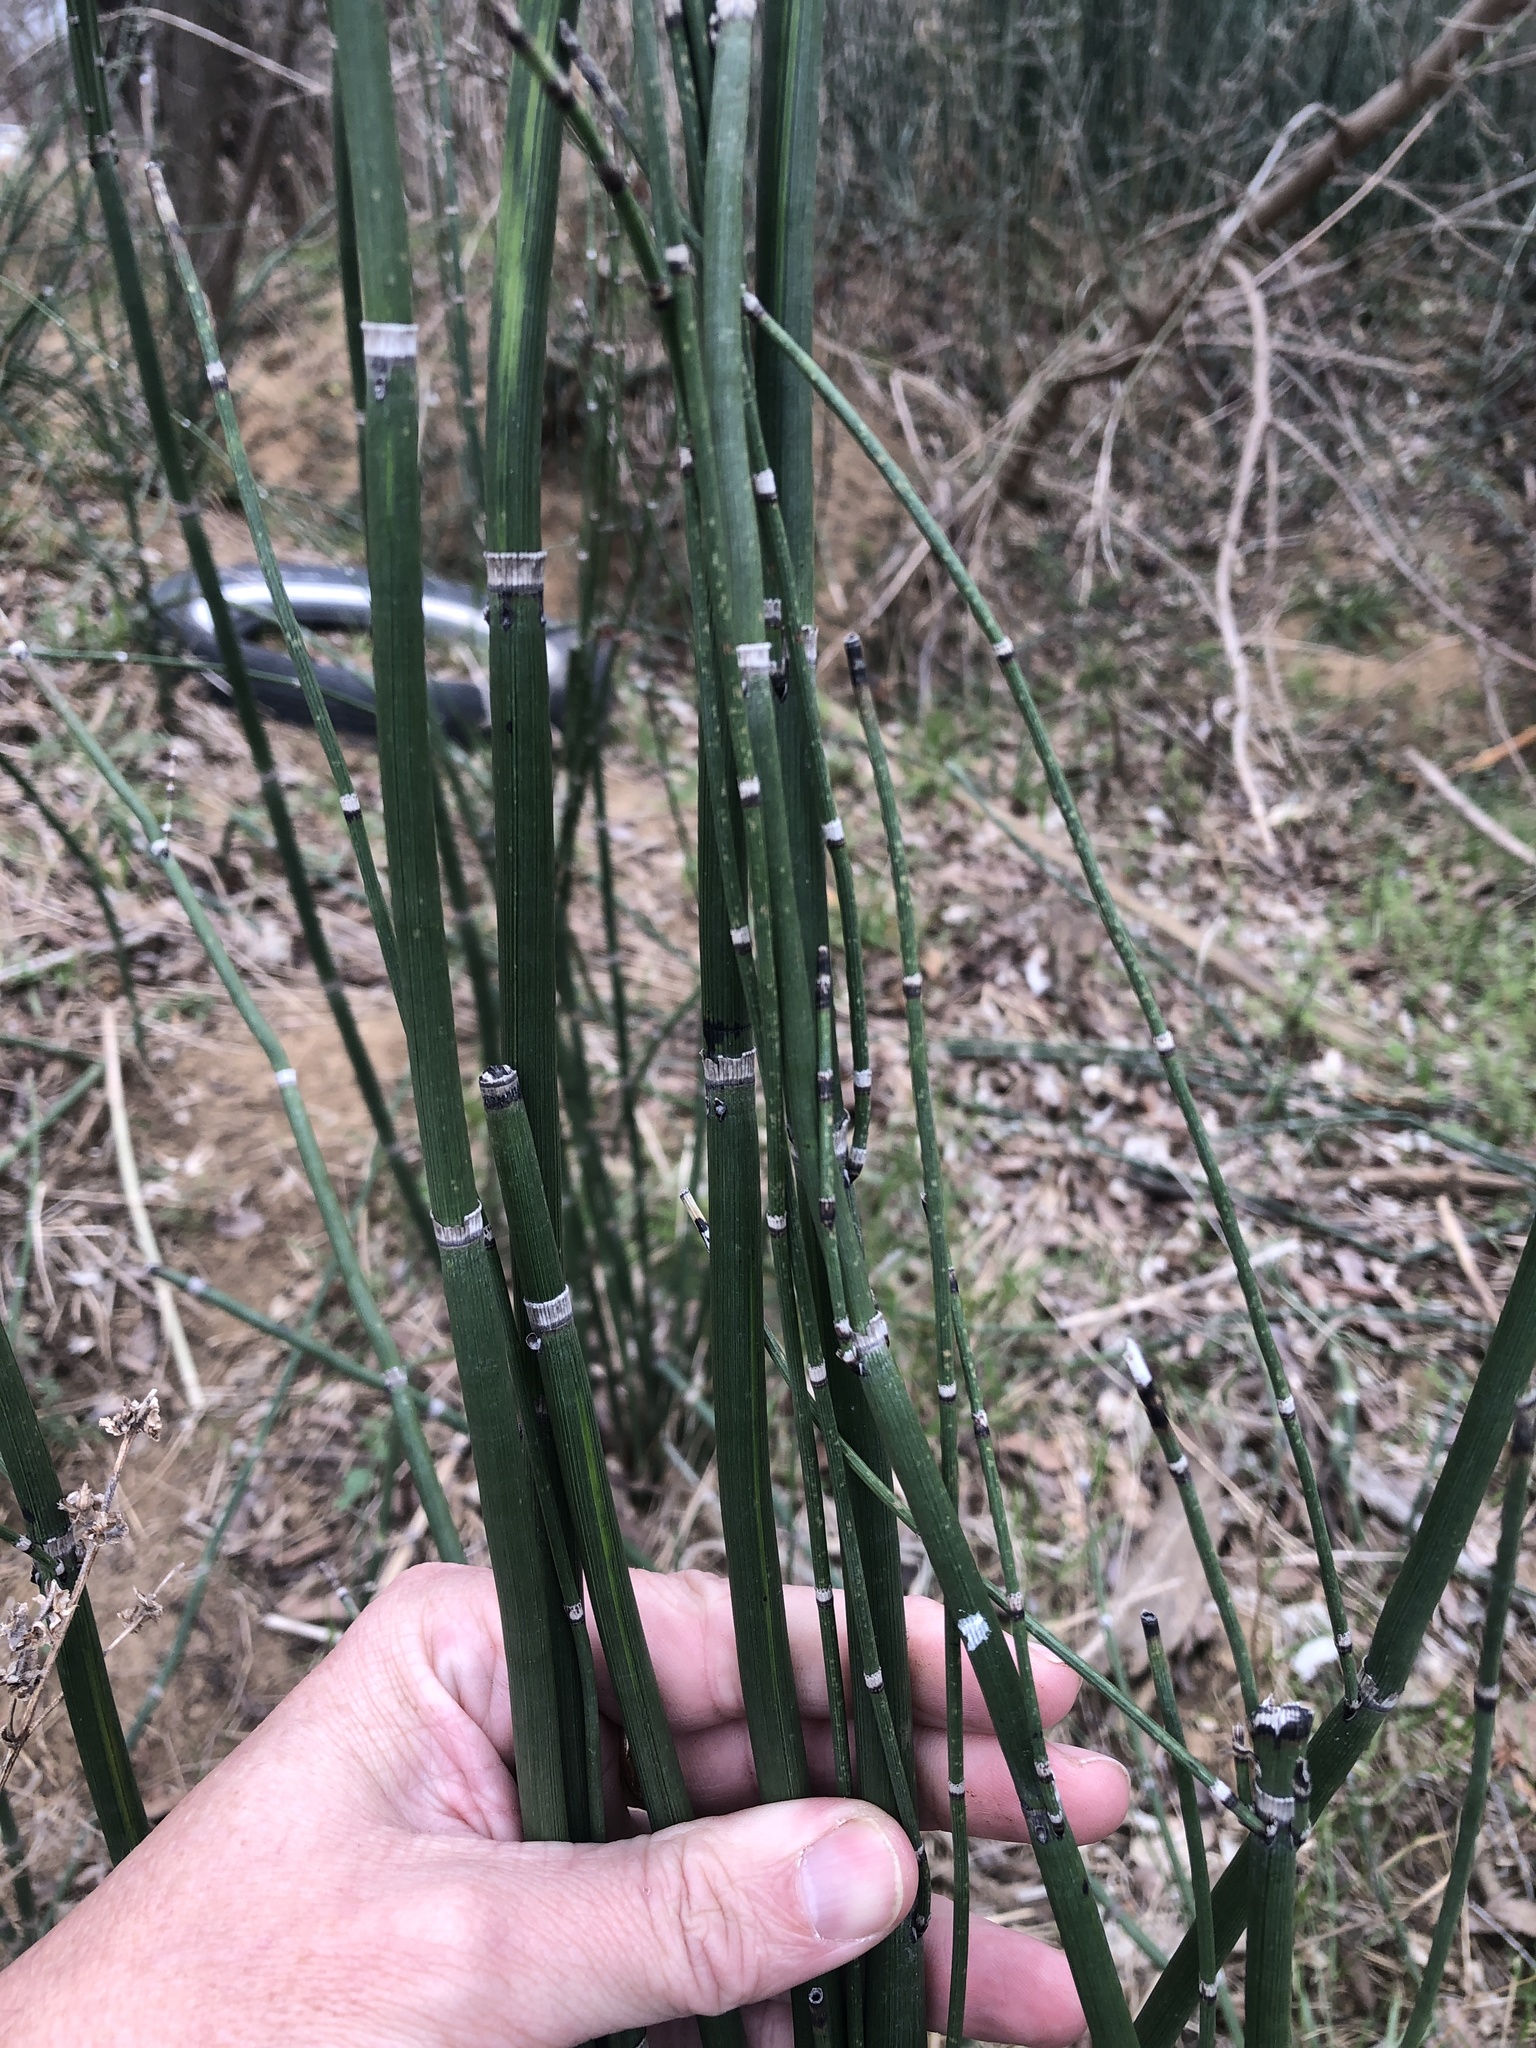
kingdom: Plantae
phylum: Tracheophyta
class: Polypodiopsida
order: Equisetales
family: Equisetaceae
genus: Equisetum
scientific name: Equisetum praealtum
